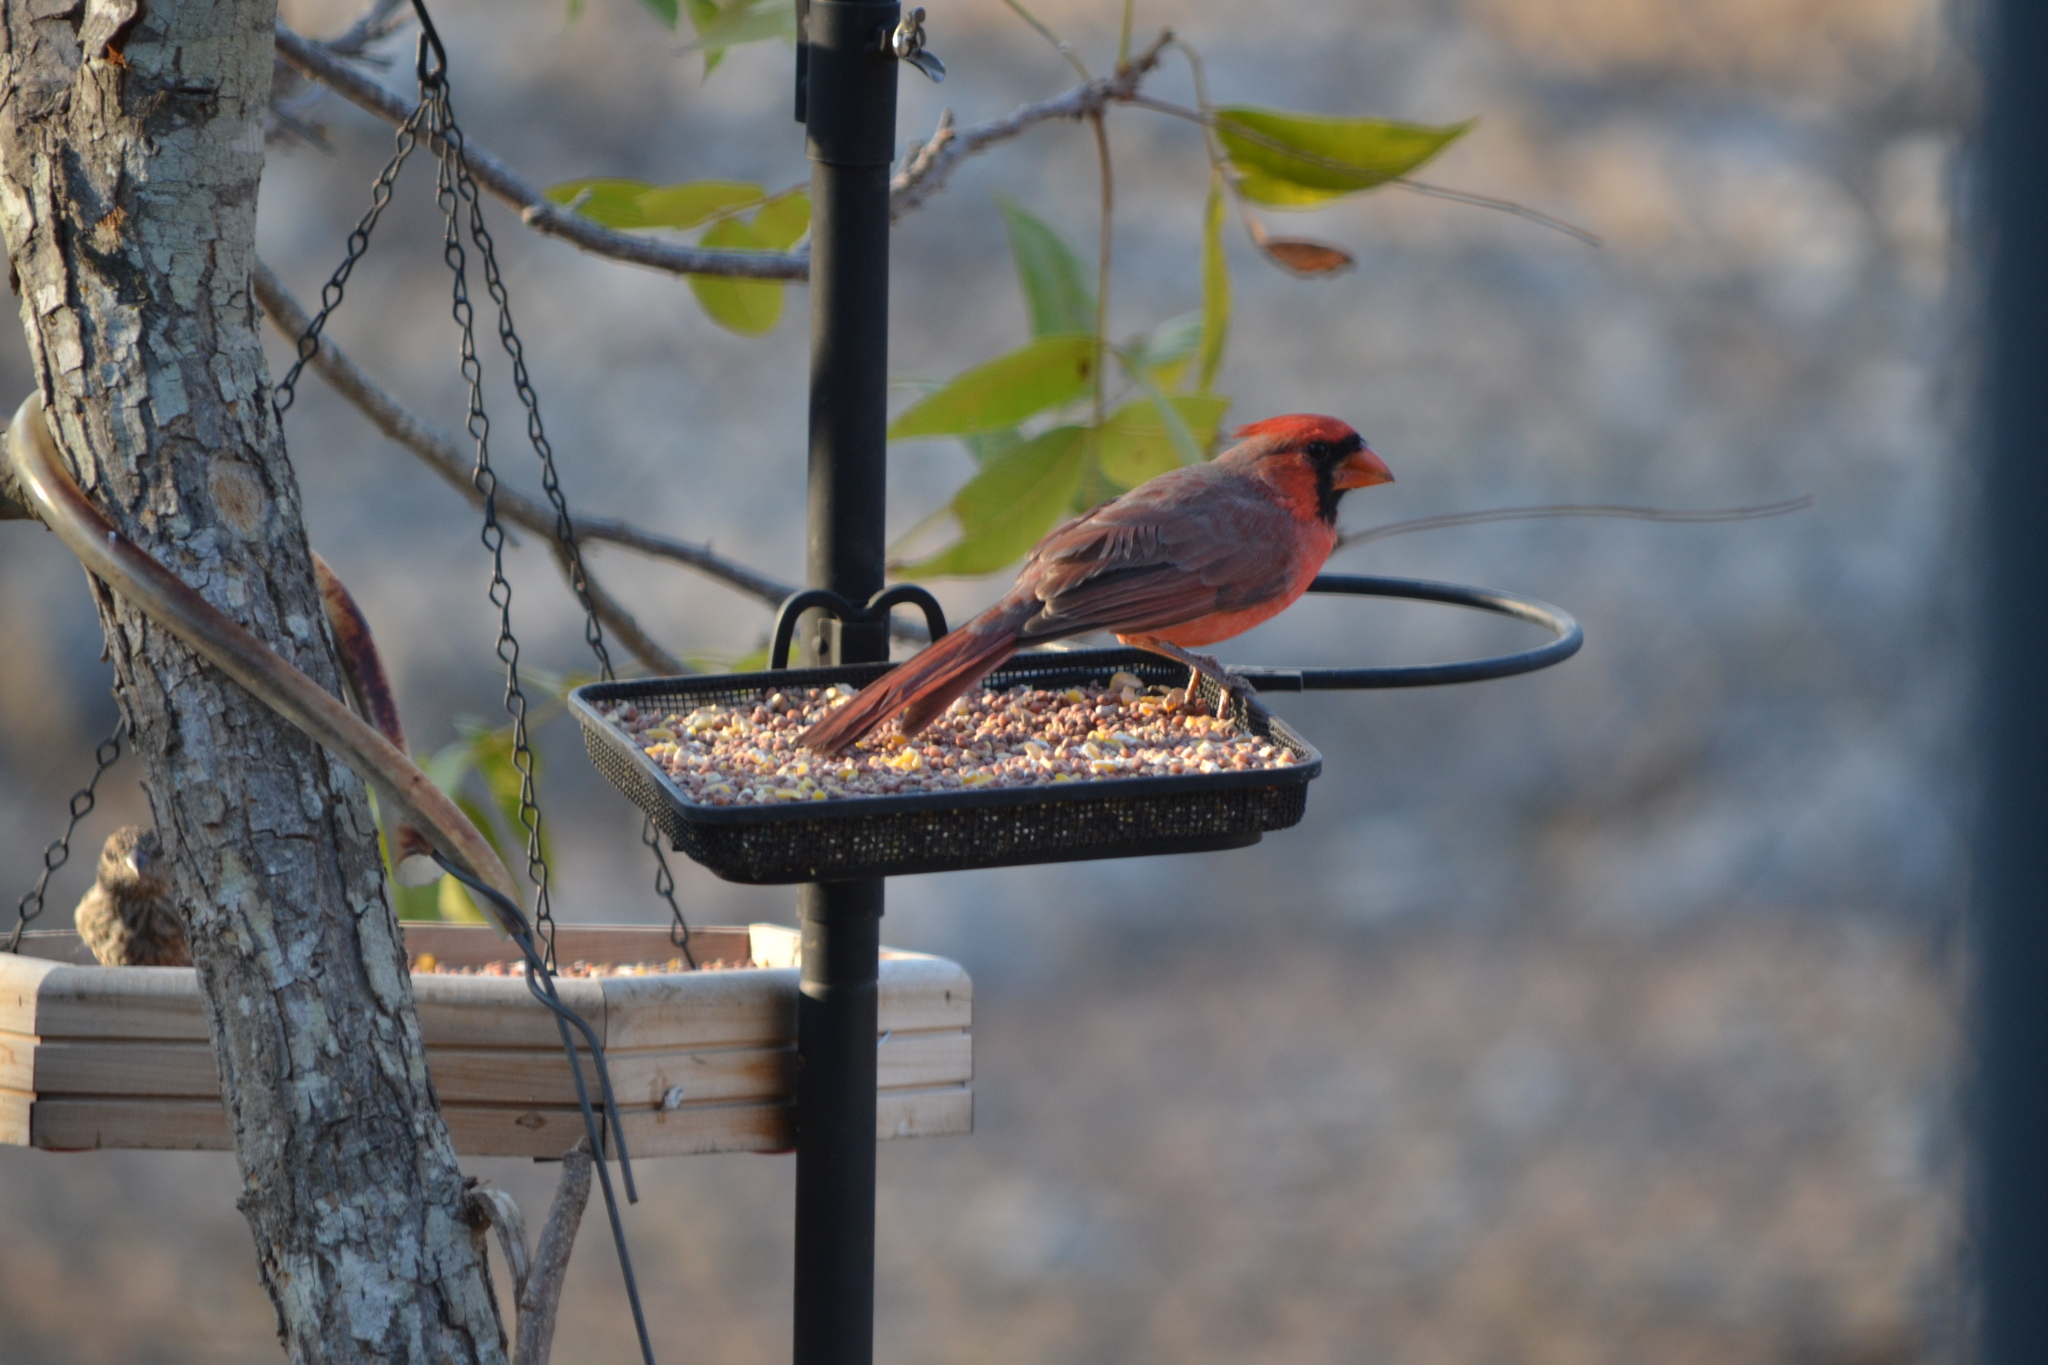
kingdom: Animalia
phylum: Chordata
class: Aves
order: Passeriformes
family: Cardinalidae
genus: Cardinalis
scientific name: Cardinalis cardinalis
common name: Northern cardinal
